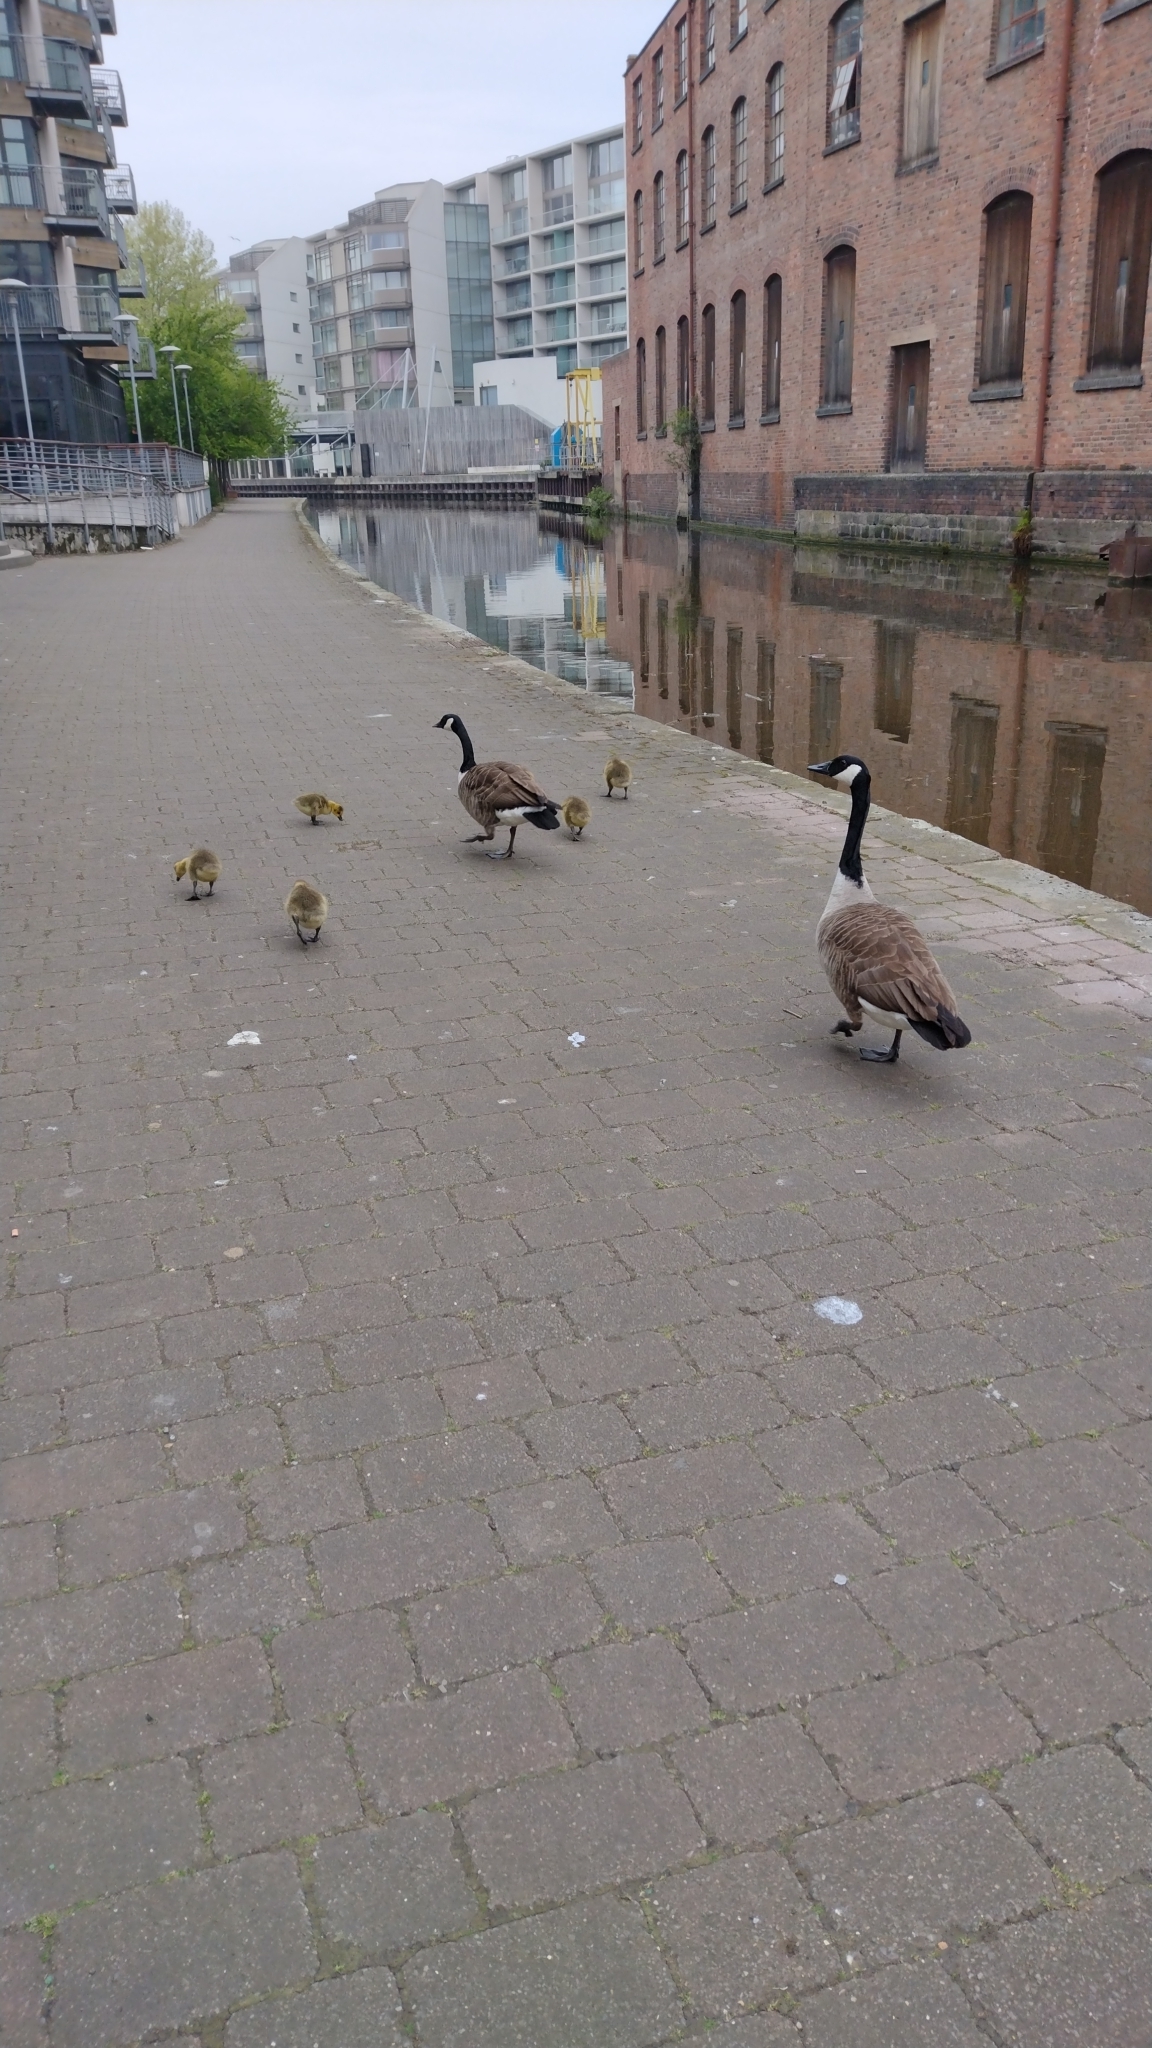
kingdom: Animalia
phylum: Chordata
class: Aves
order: Anseriformes
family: Anatidae
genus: Branta
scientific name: Branta canadensis
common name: Canada goose
